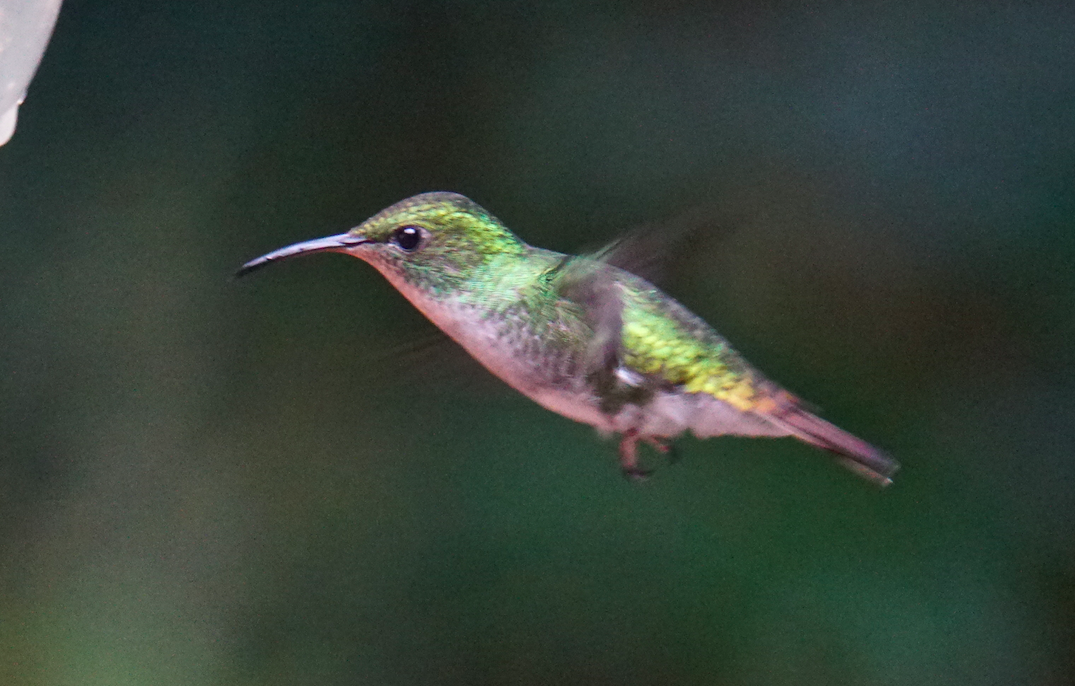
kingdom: Animalia
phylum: Chordata
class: Aves
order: Apodiformes
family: Trochilidae
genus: Microchera
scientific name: Microchera cupreiceps
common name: Coppery-headed emerald
